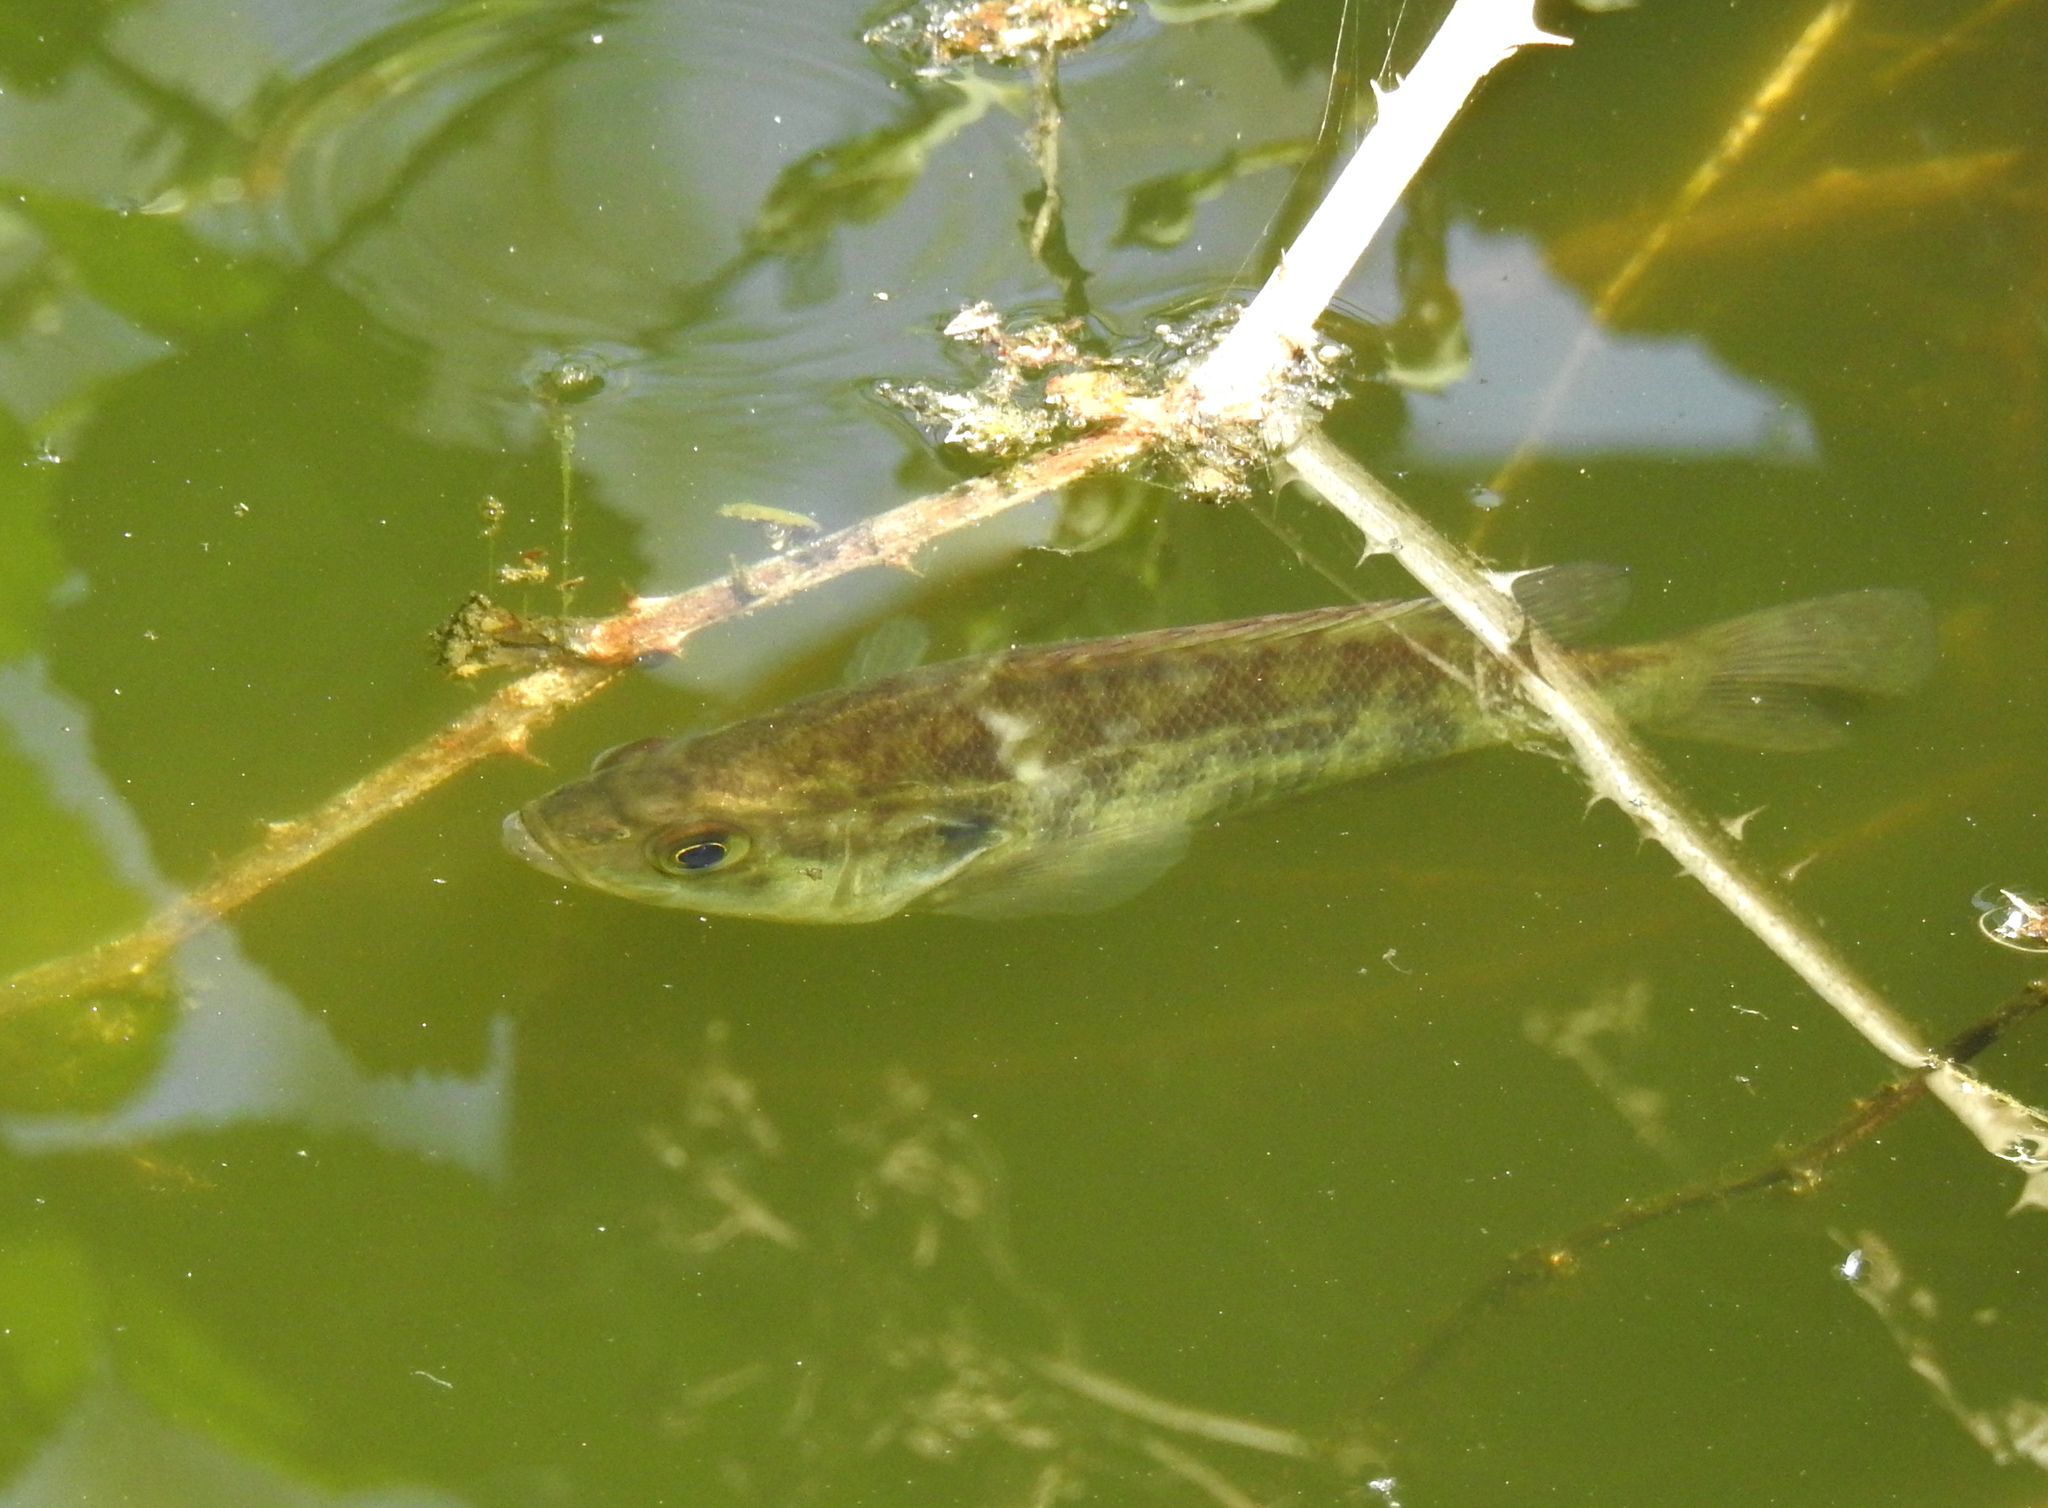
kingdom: Animalia
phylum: Chordata
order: Perciformes
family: Centrarchidae
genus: Archoplites
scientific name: Archoplites interruptus
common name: Sacramento perch
